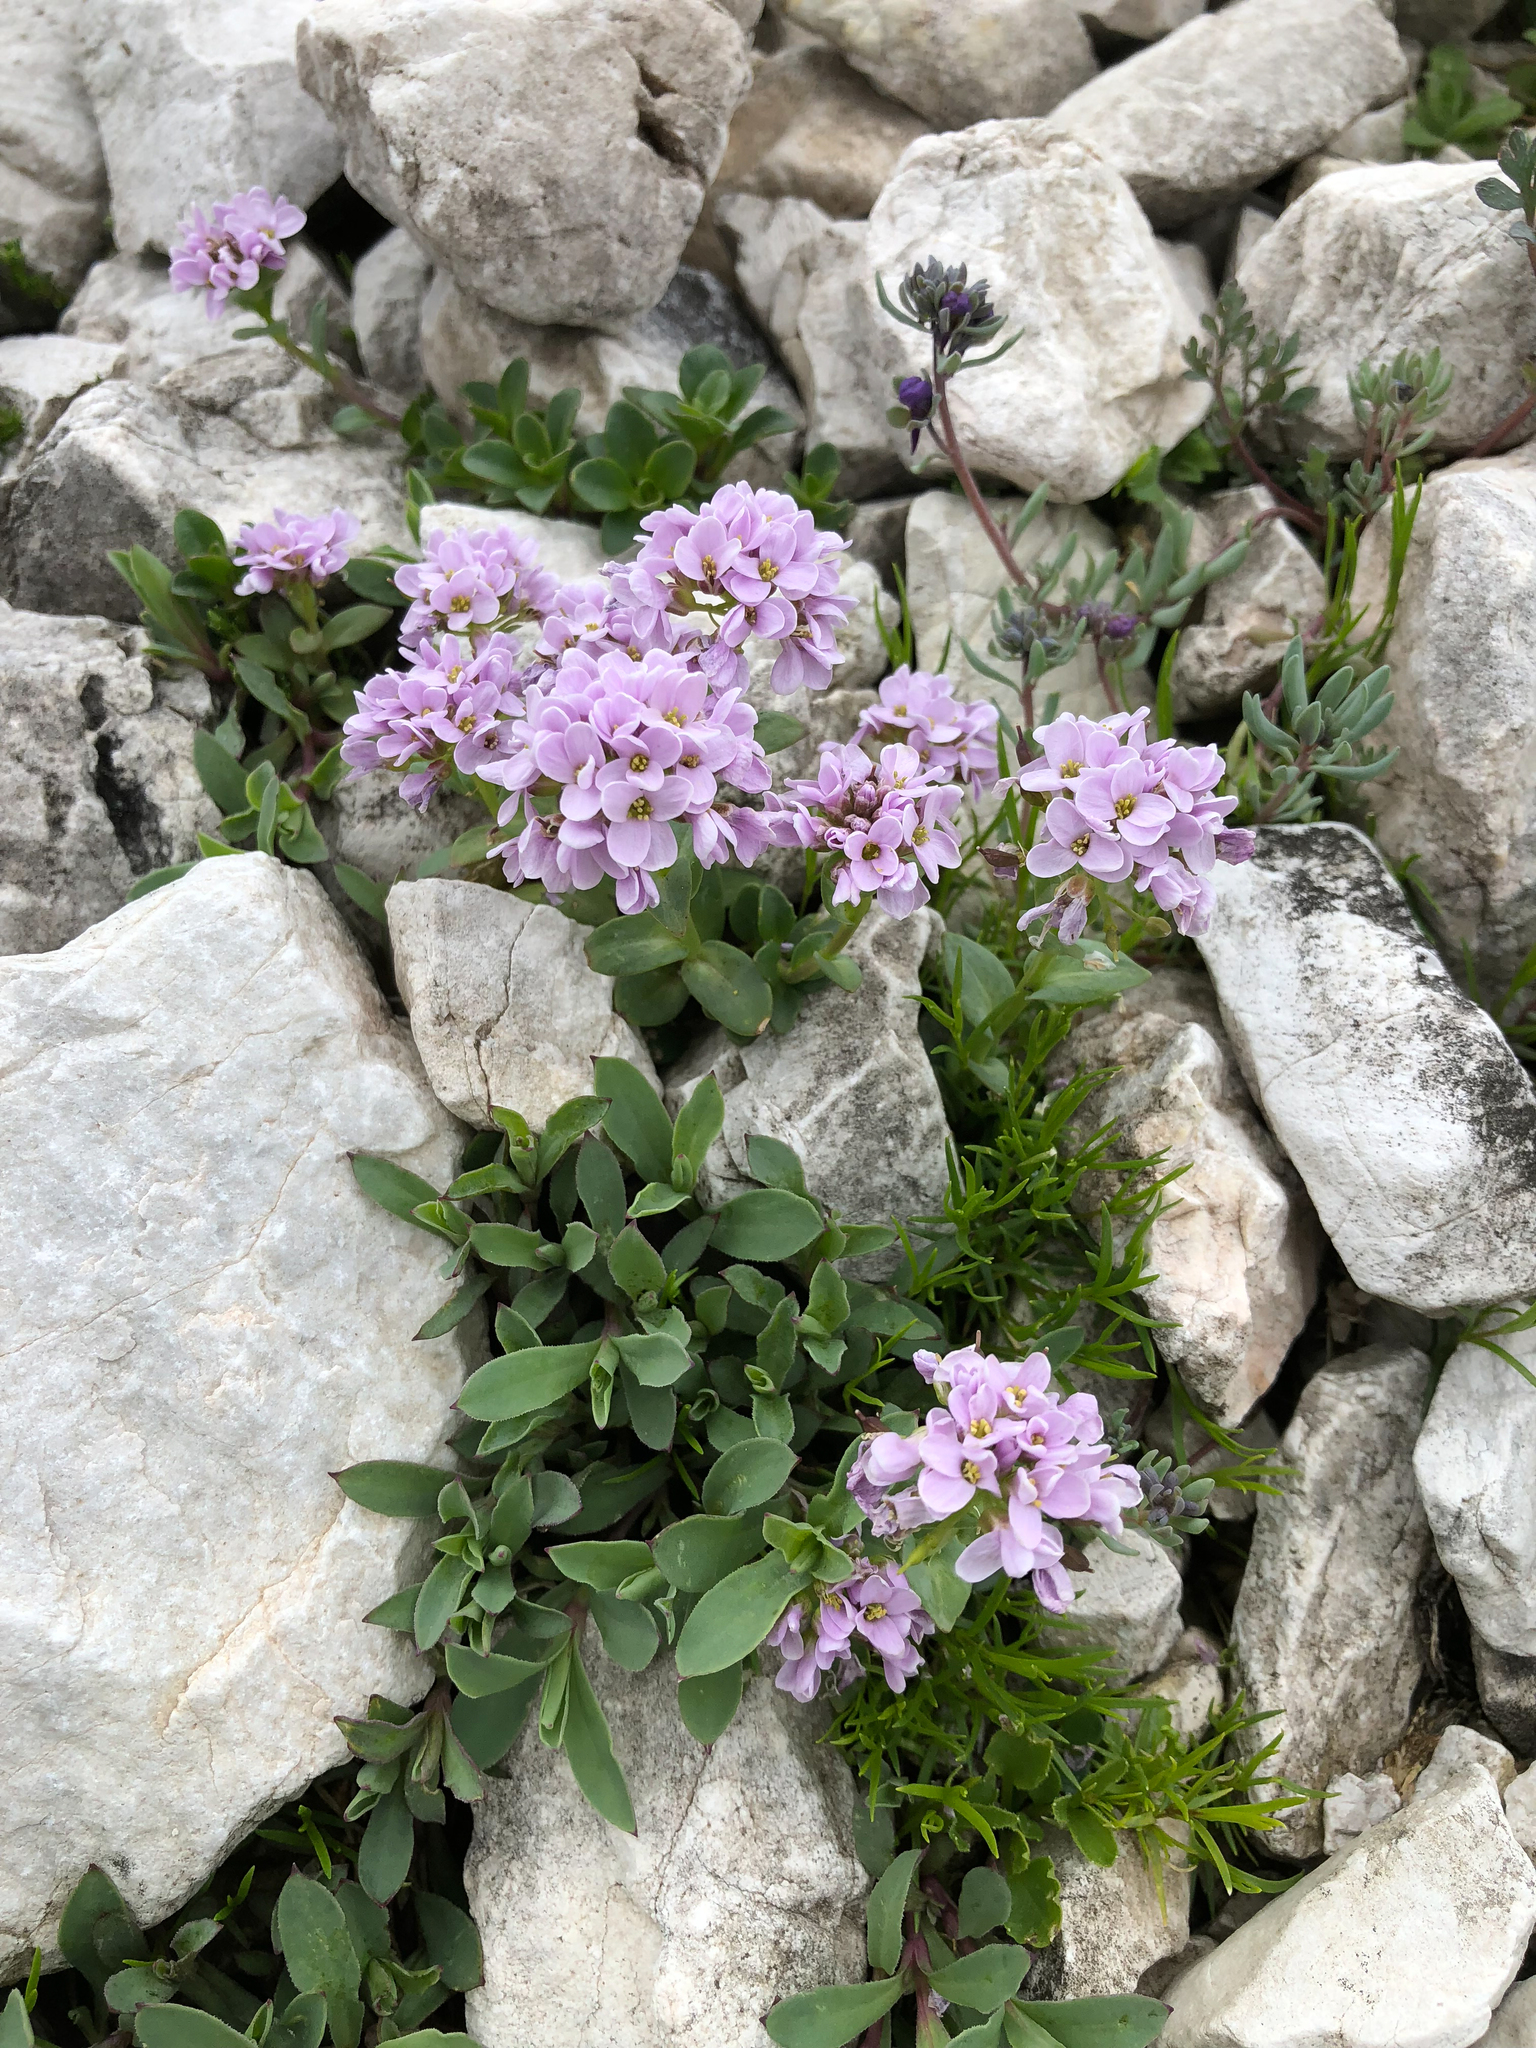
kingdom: Plantae
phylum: Tracheophyta
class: Magnoliopsida
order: Brassicales
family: Brassicaceae
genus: Noccaea
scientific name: Noccaea rotundifolia
